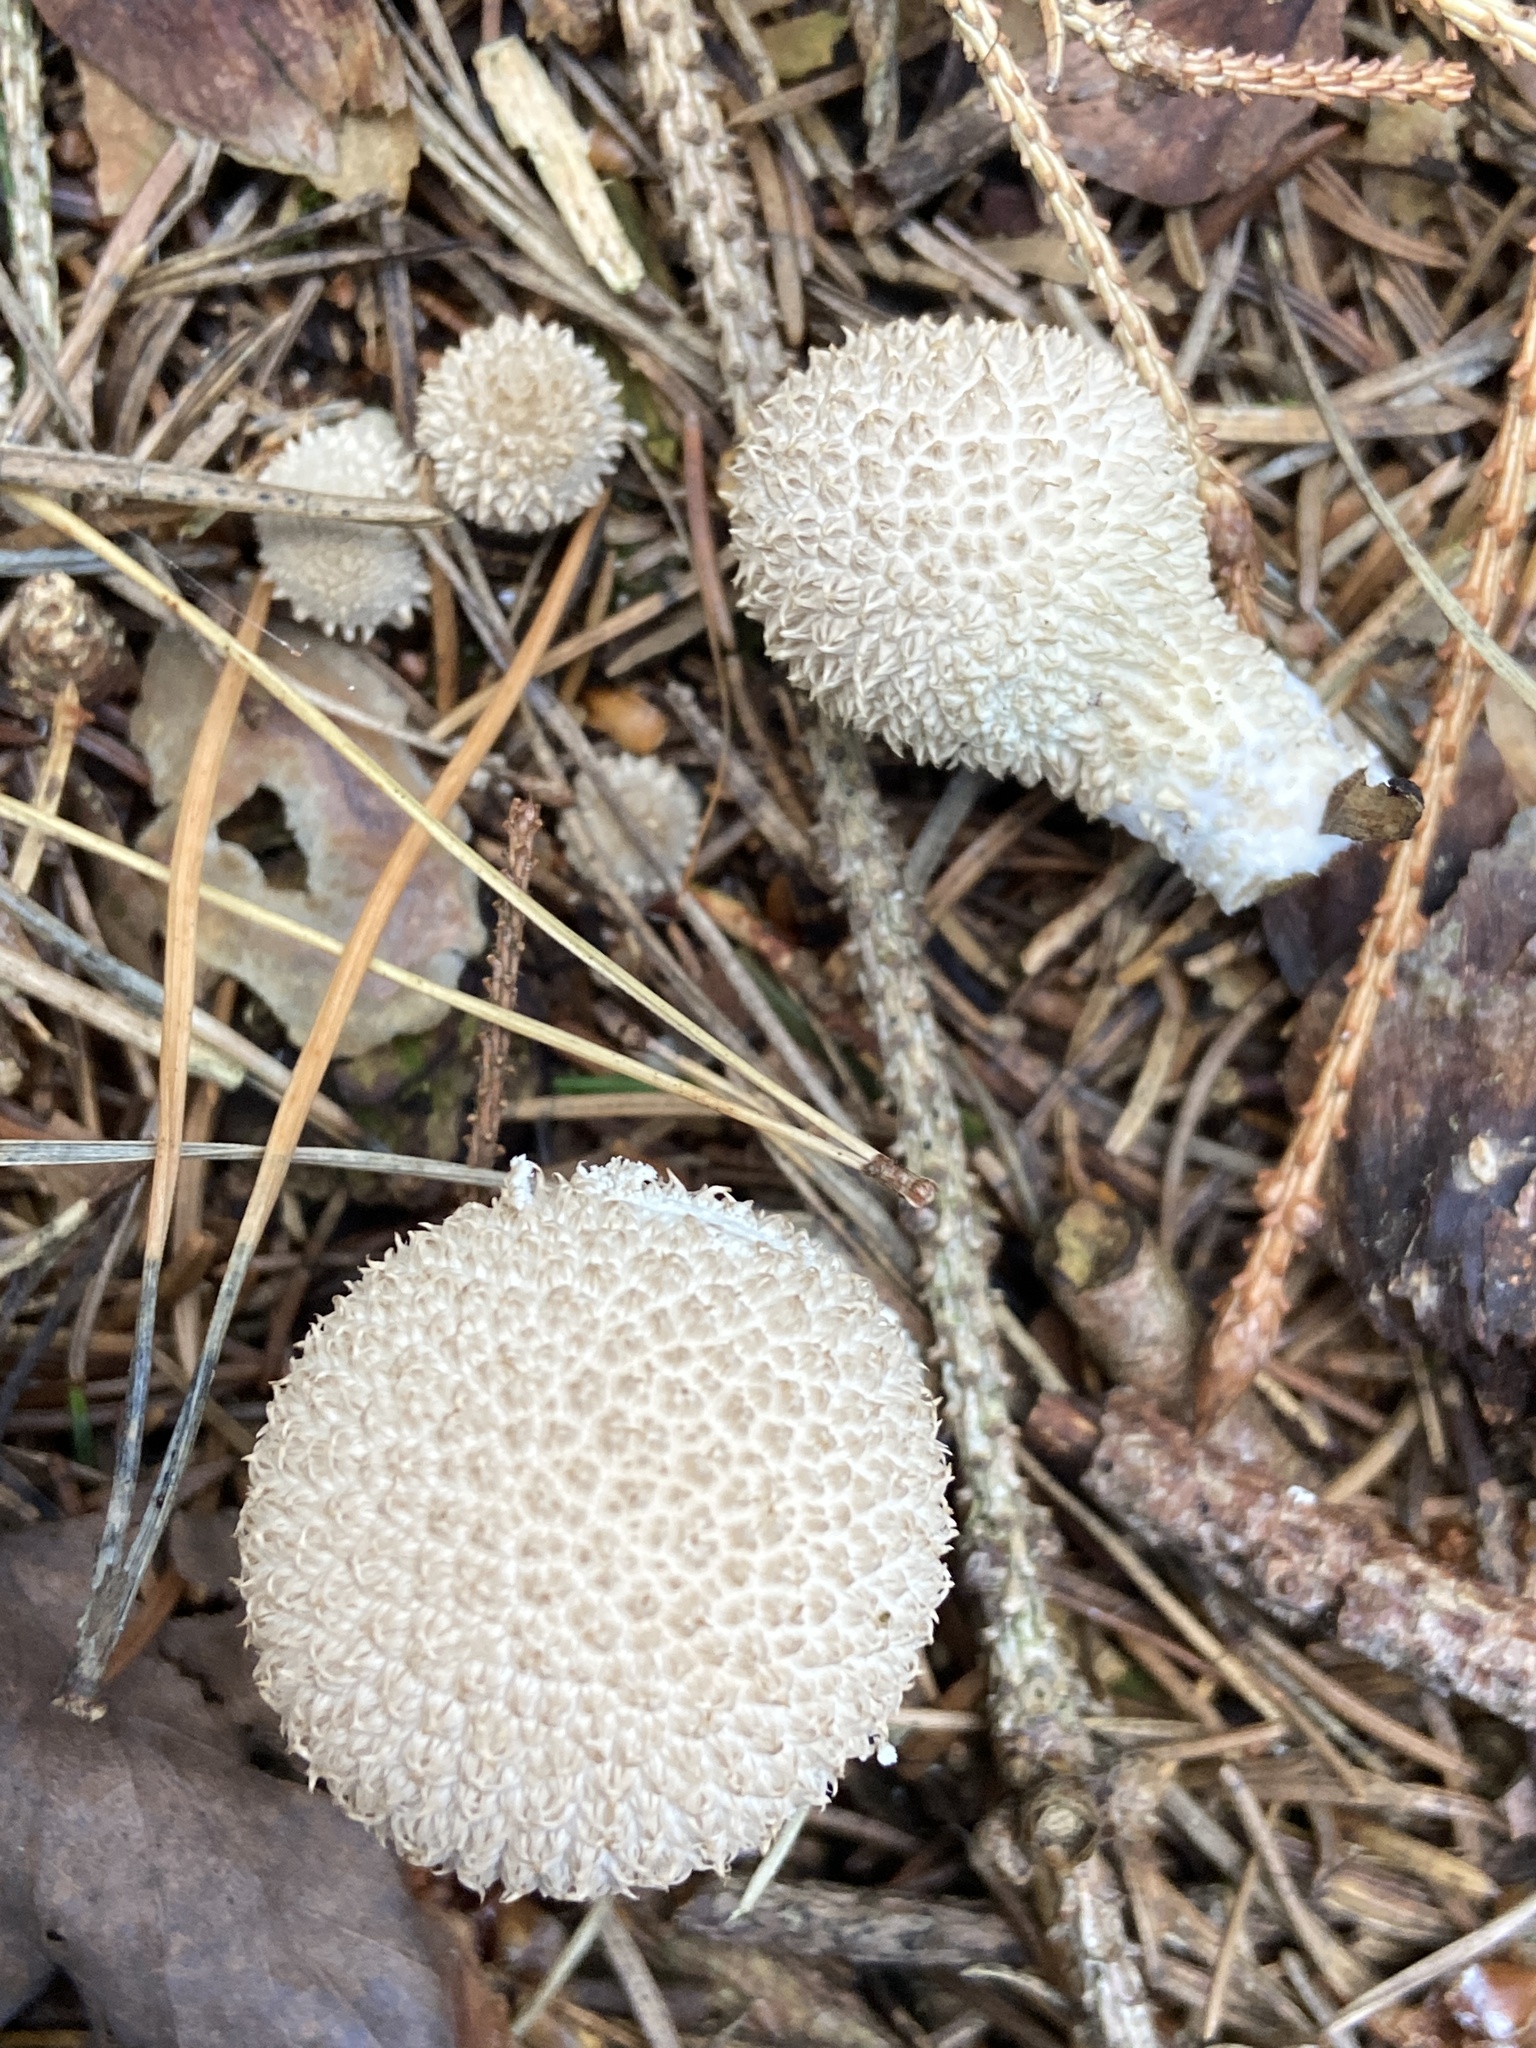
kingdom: Fungi
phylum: Basidiomycota
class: Agaricomycetes
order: Agaricales
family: Lycoperdaceae
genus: Lycoperdon
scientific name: Lycoperdon echinatum
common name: Hedgehog puffball
